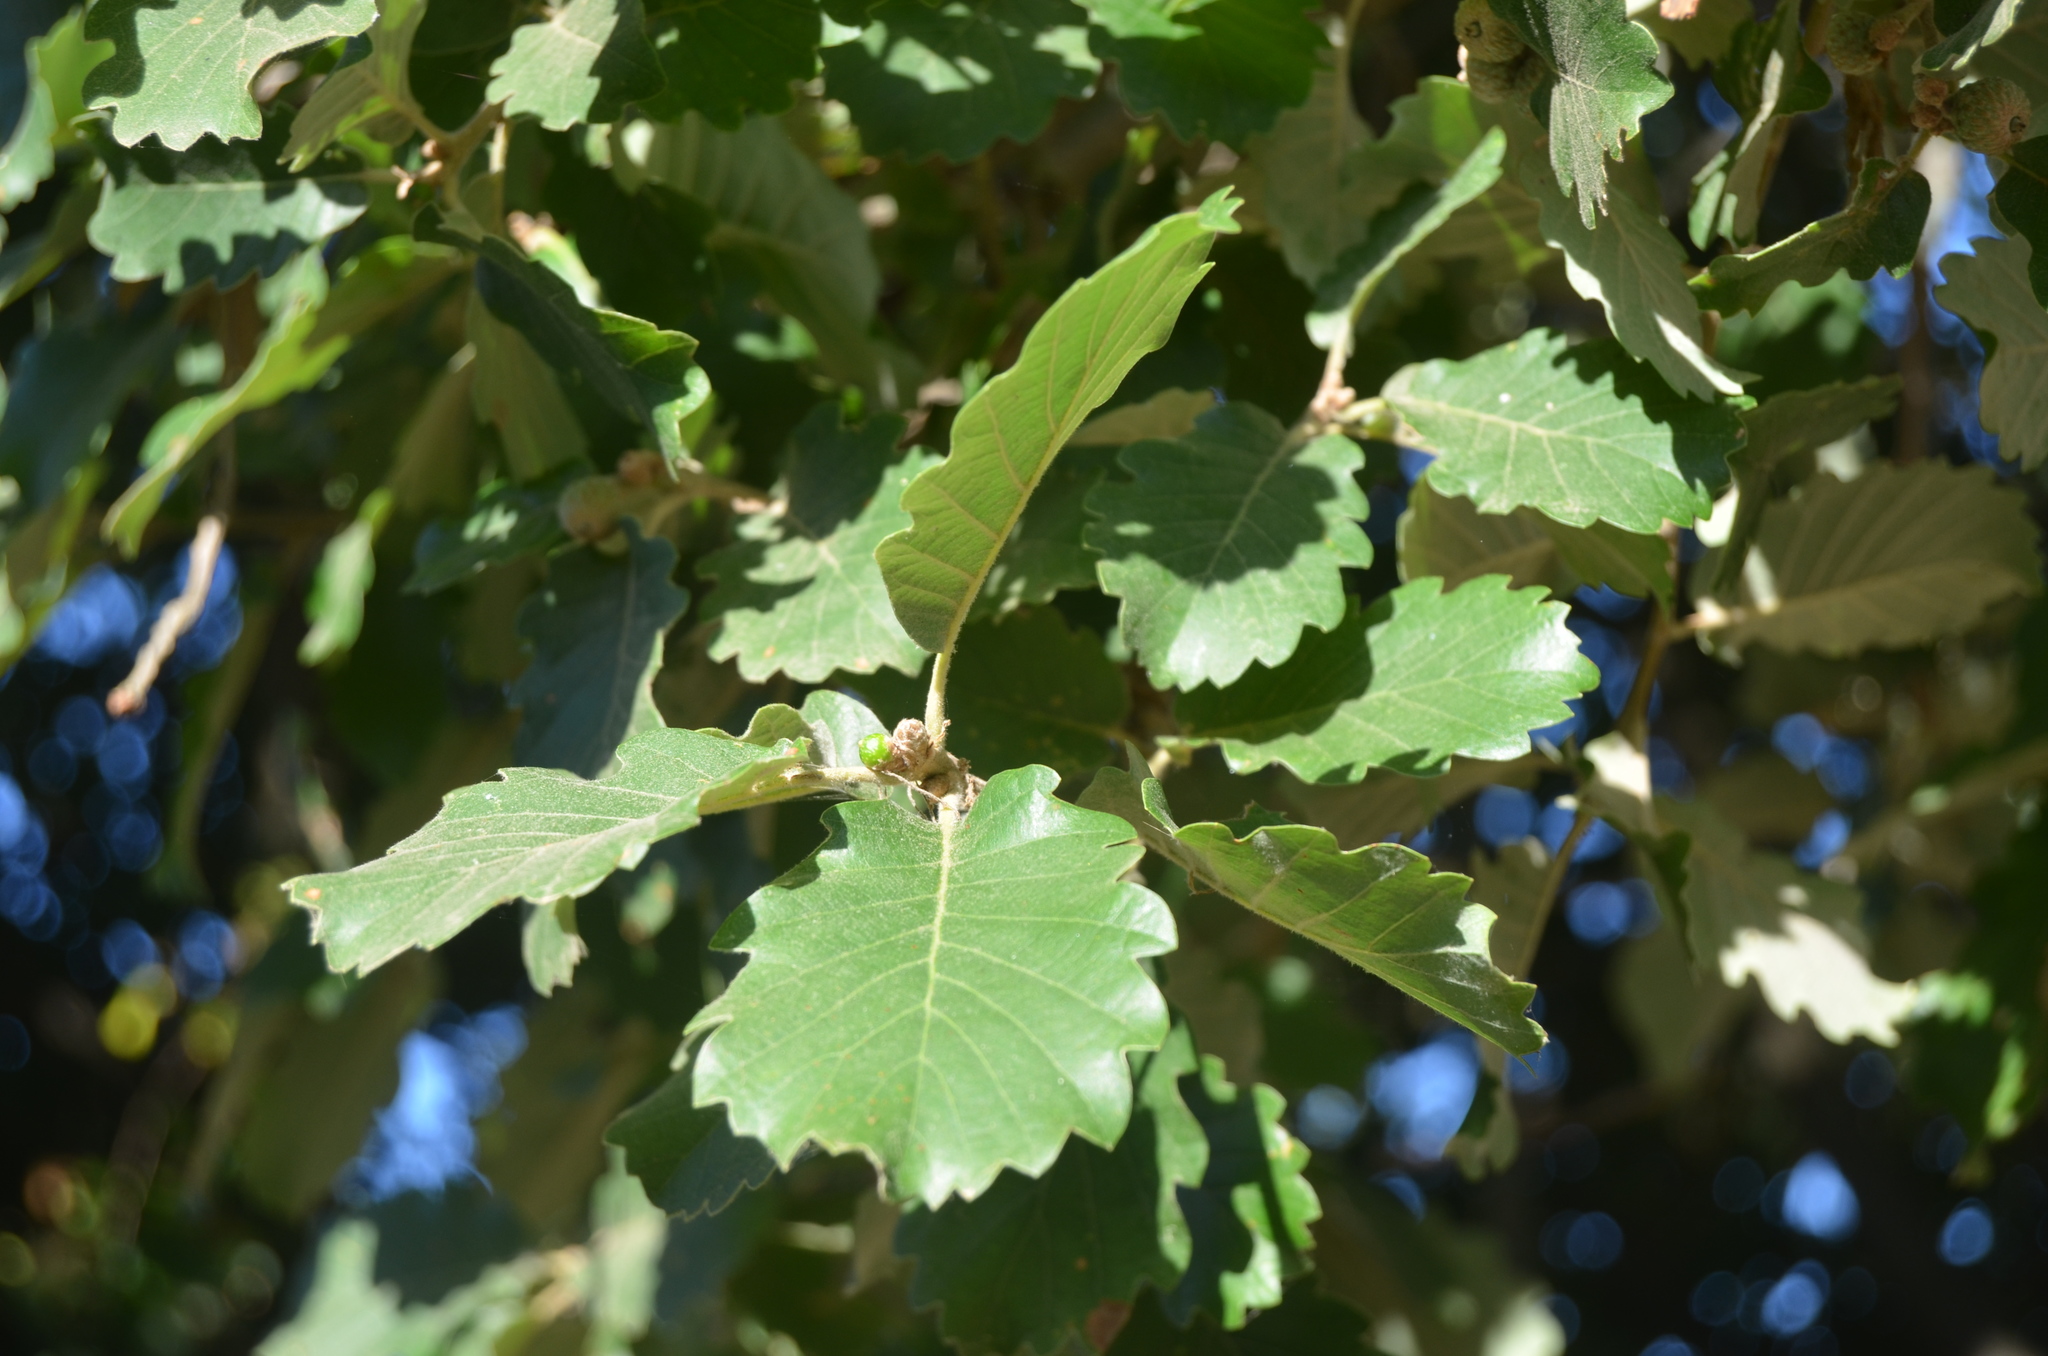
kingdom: Plantae
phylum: Tracheophyta
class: Magnoliopsida
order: Fagales
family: Fagaceae
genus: Quercus
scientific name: Quercus pubescens
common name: Downy oak
